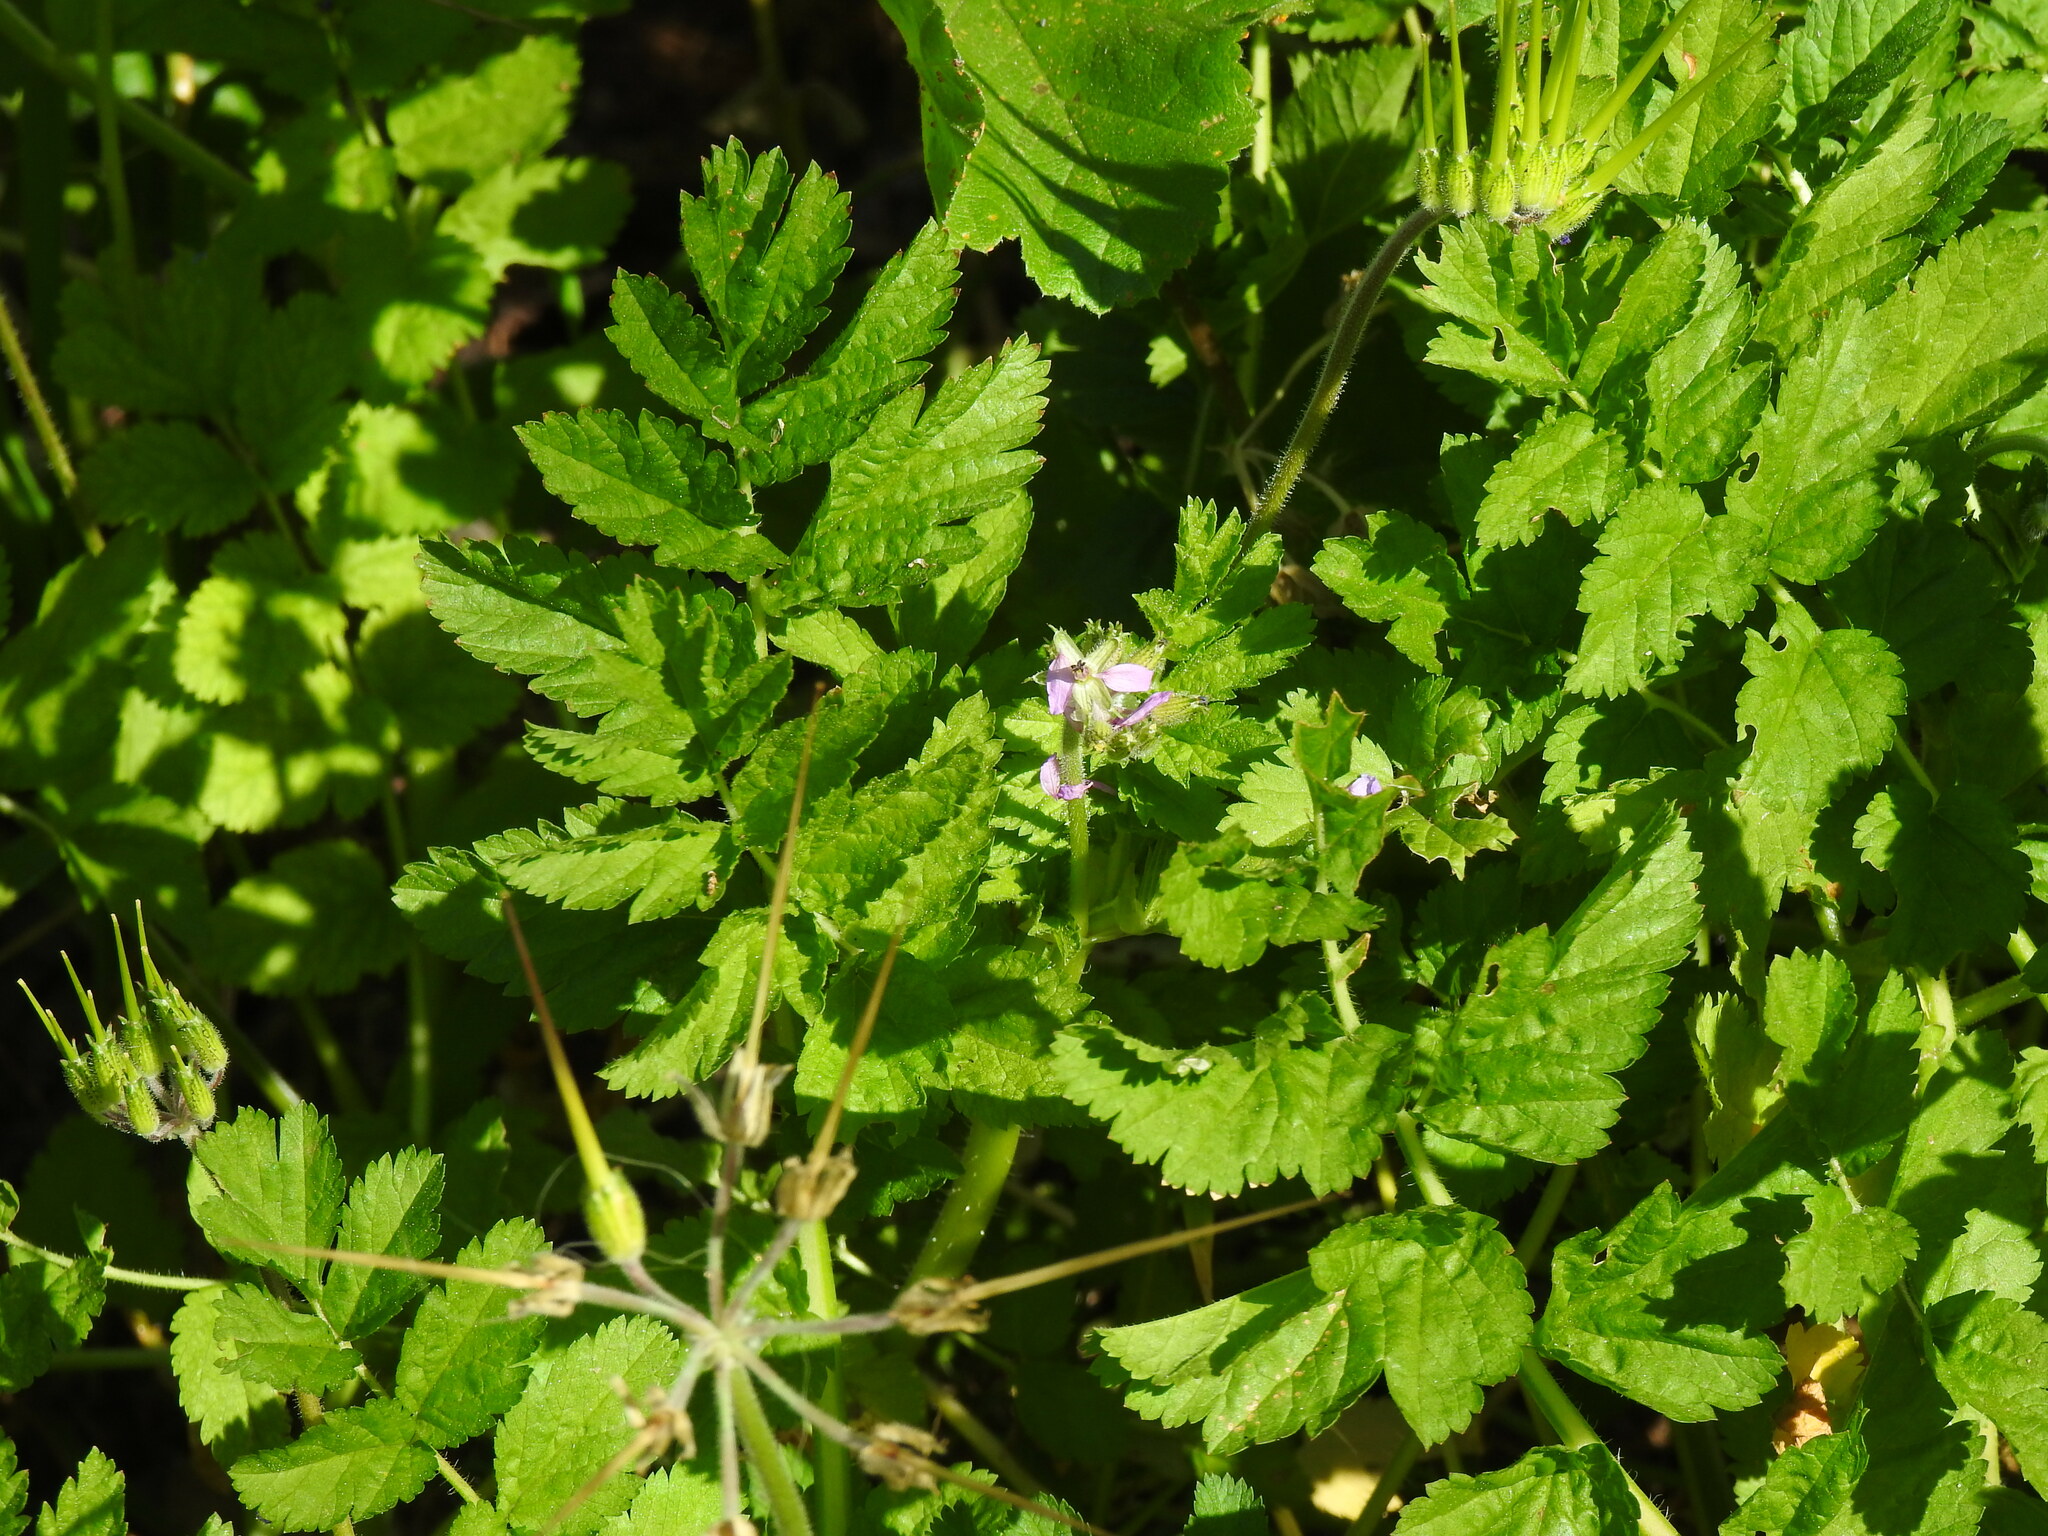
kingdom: Plantae
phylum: Tracheophyta
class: Magnoliopsida
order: Geraniales
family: Geraniaceae
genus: Erodium
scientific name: Erodium moschatum
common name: Musk stork's-bill
